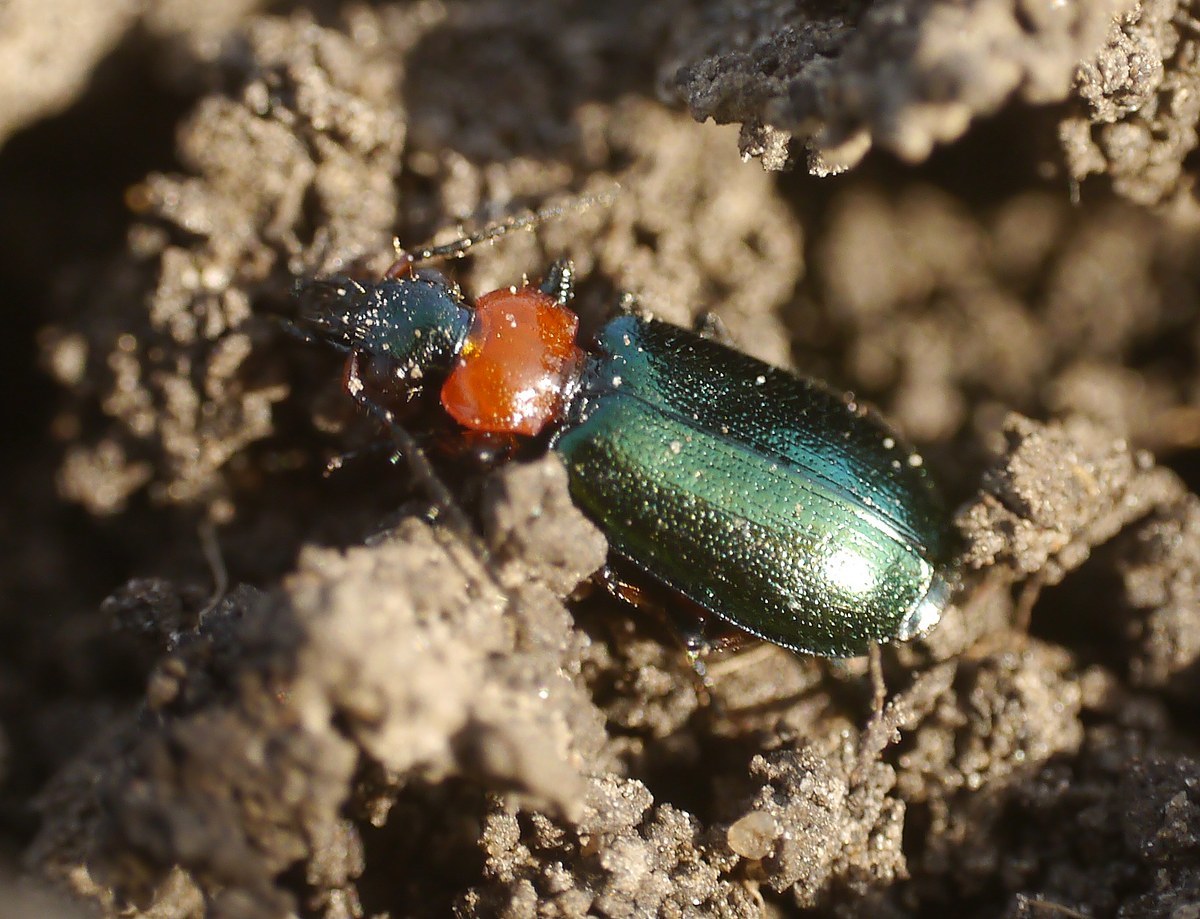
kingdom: Animalia
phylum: Arthropoda
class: Insecta
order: Coleoptera
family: Carabidae
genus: Lebia
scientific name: Lebia cyanocephala
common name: Blue plunderer
